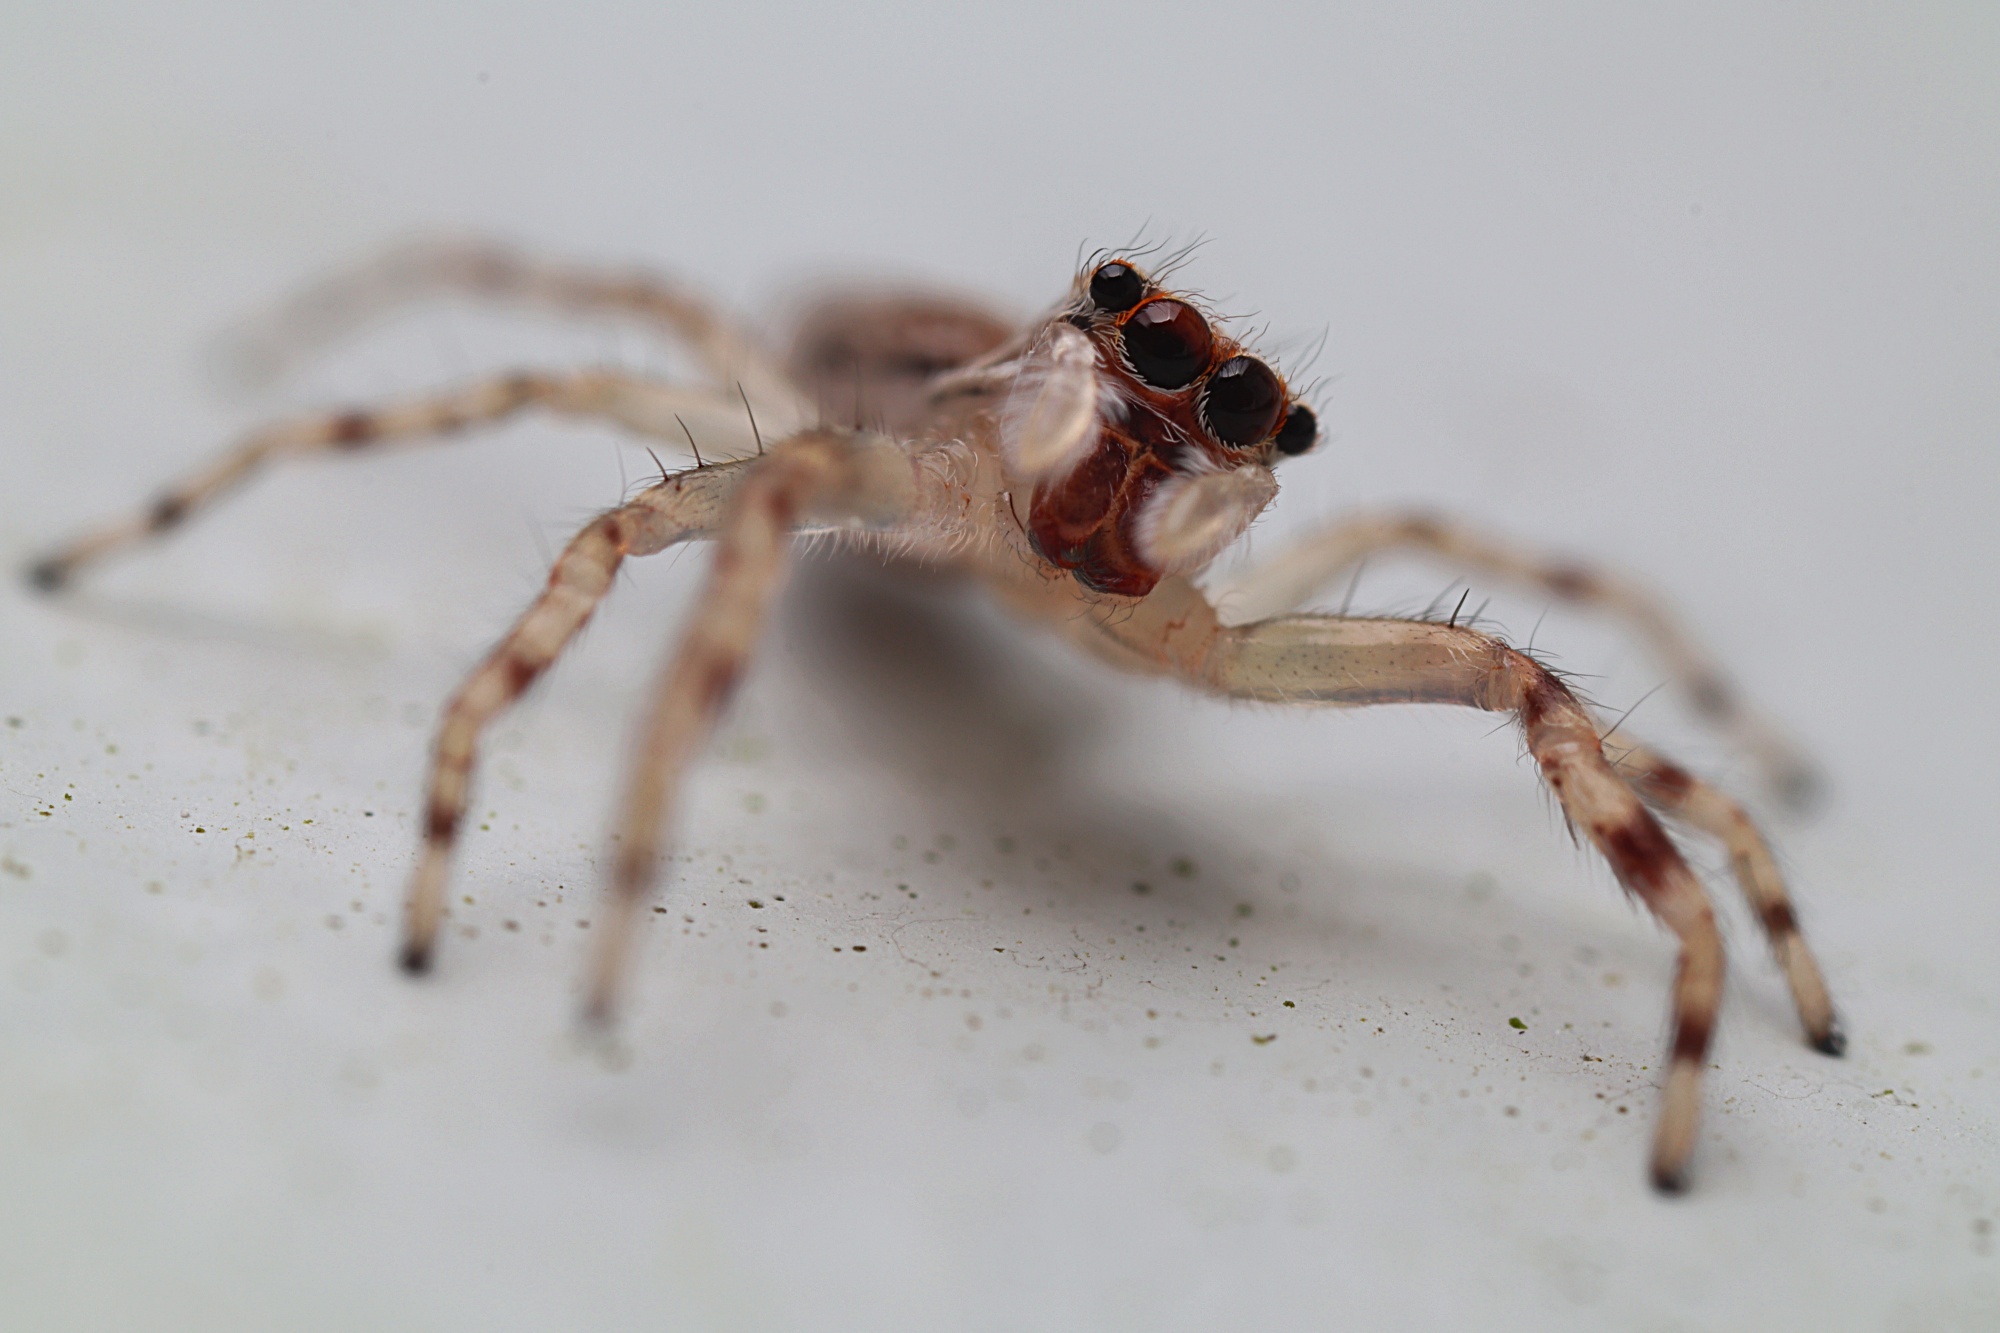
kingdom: Animalia
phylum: Arthropoda
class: Arachnida
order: Araneae
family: Salticidae
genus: Helpis
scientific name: Helpis minitabunda
